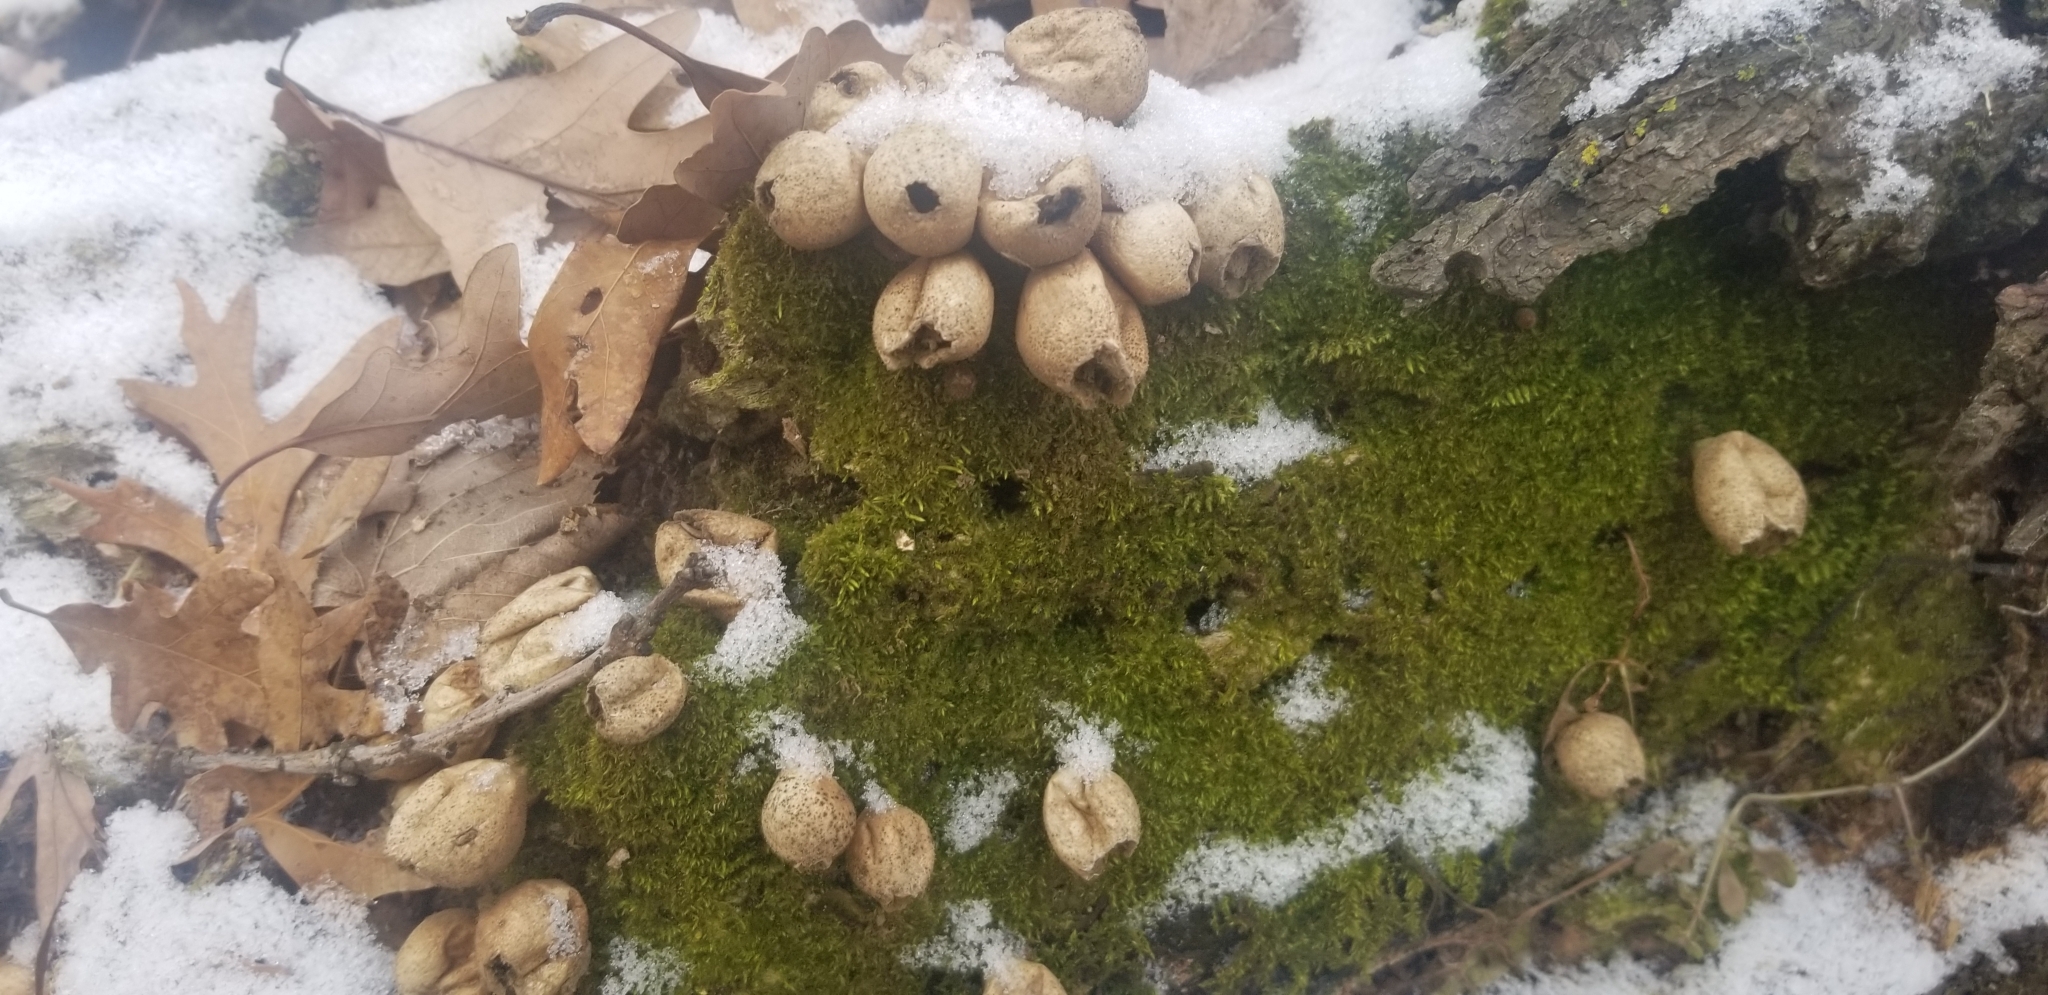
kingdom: Fungi
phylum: Basidiomycota
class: Agaricomycetes
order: Agaricales
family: Lycoperdaceae
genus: Apioperdon
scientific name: Apioperdon pyriforme
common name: Pear-shaped puffball
